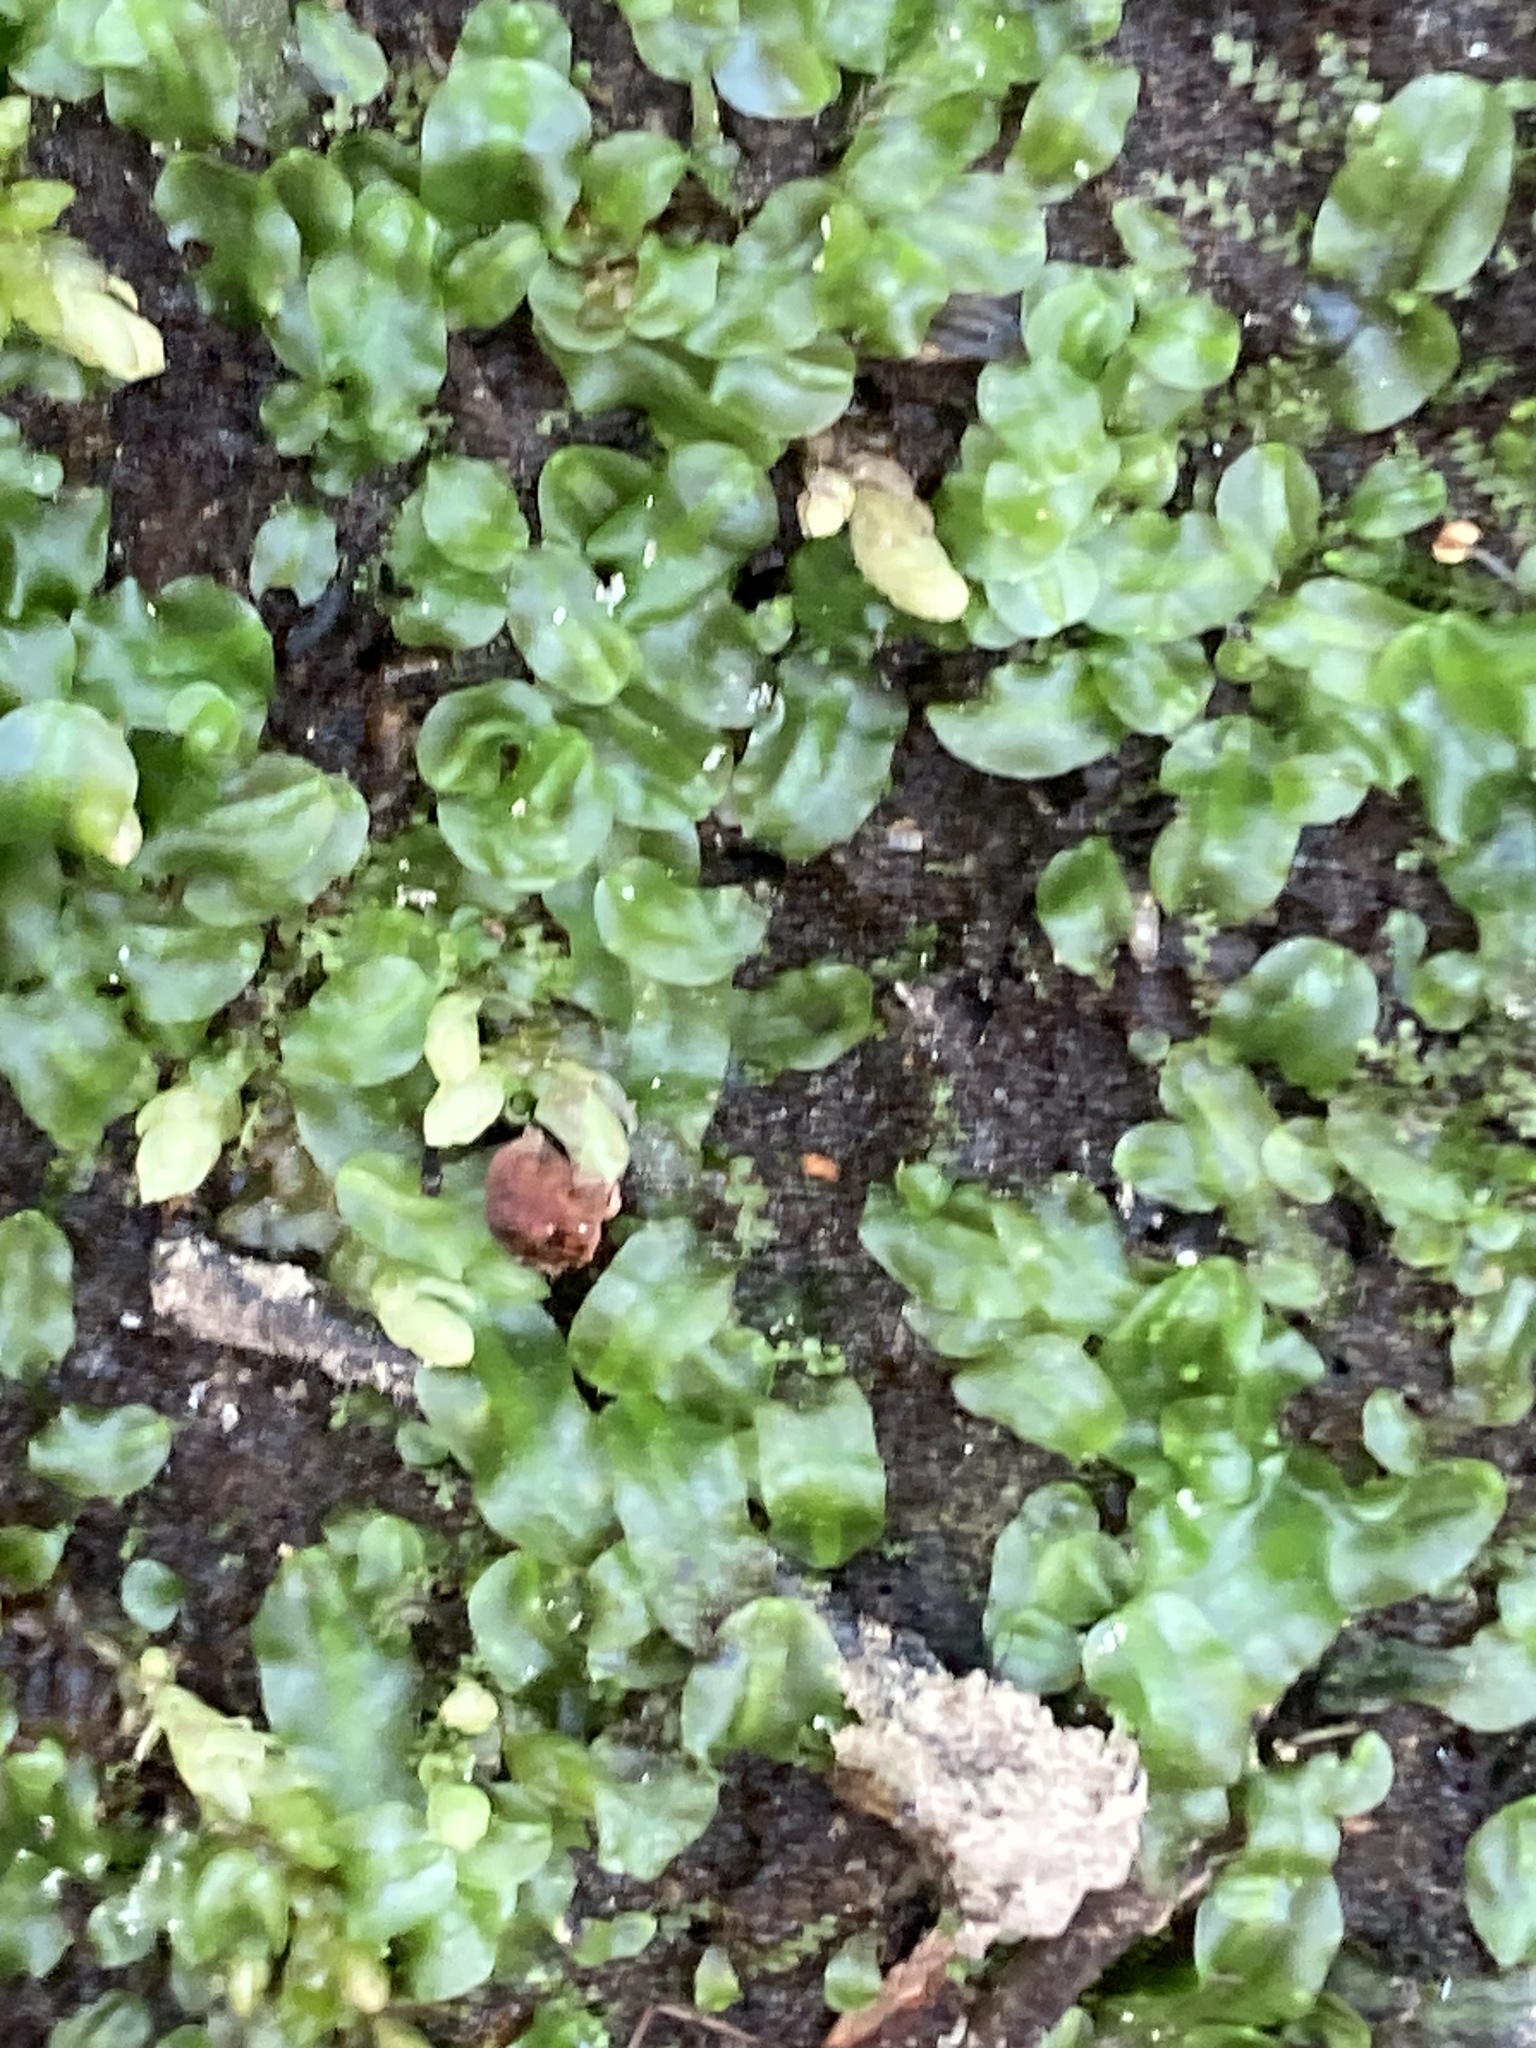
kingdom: Plantae
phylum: Marchantiophyta
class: Jungermanniopsida
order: Pallaviciniales
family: Pallaviciniaceae
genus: Pallavicinia
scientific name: Pallavicinia lyellii
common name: Veilwort
